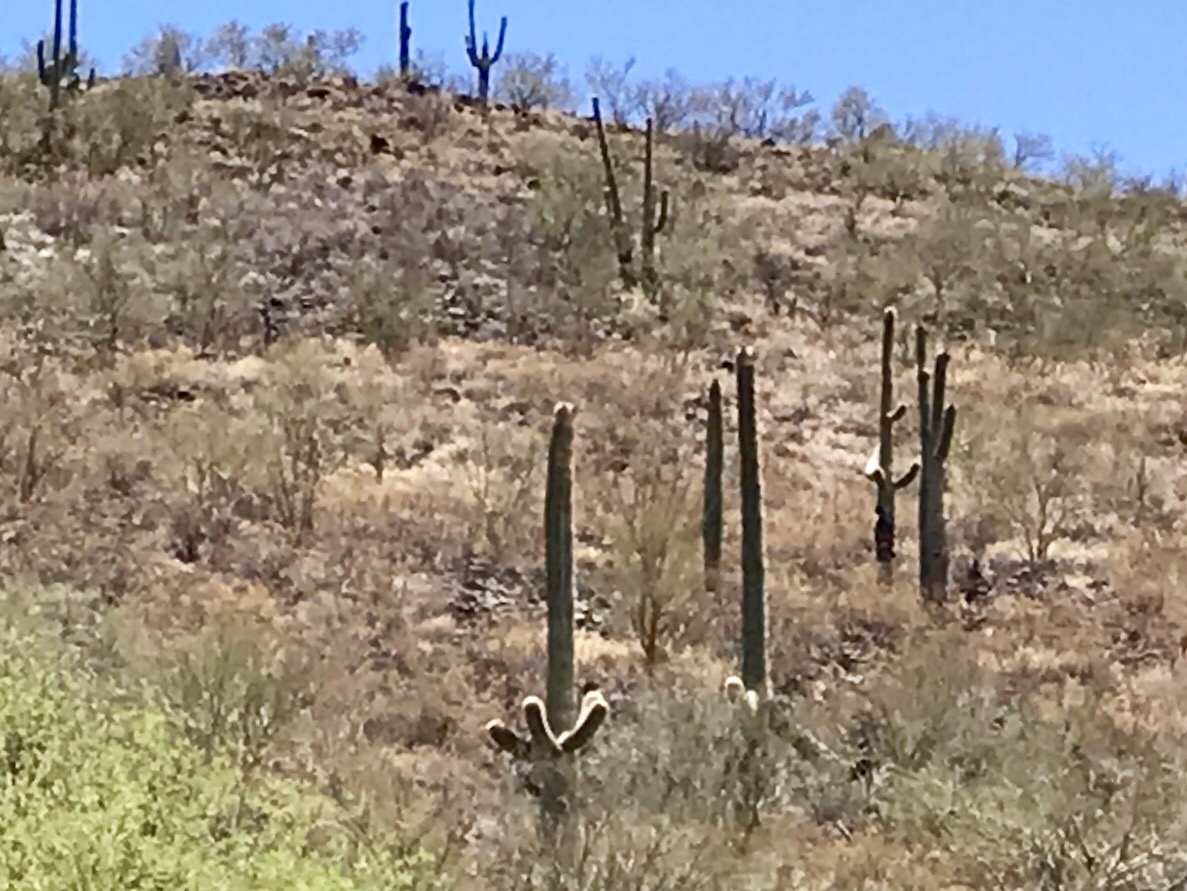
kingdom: Plantae
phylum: Tracheophyta
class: Magnoliopsida
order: Caryophyllales
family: Cactaceae
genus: Carnegiea
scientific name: Carnegiea gigantea
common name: Saguaro
